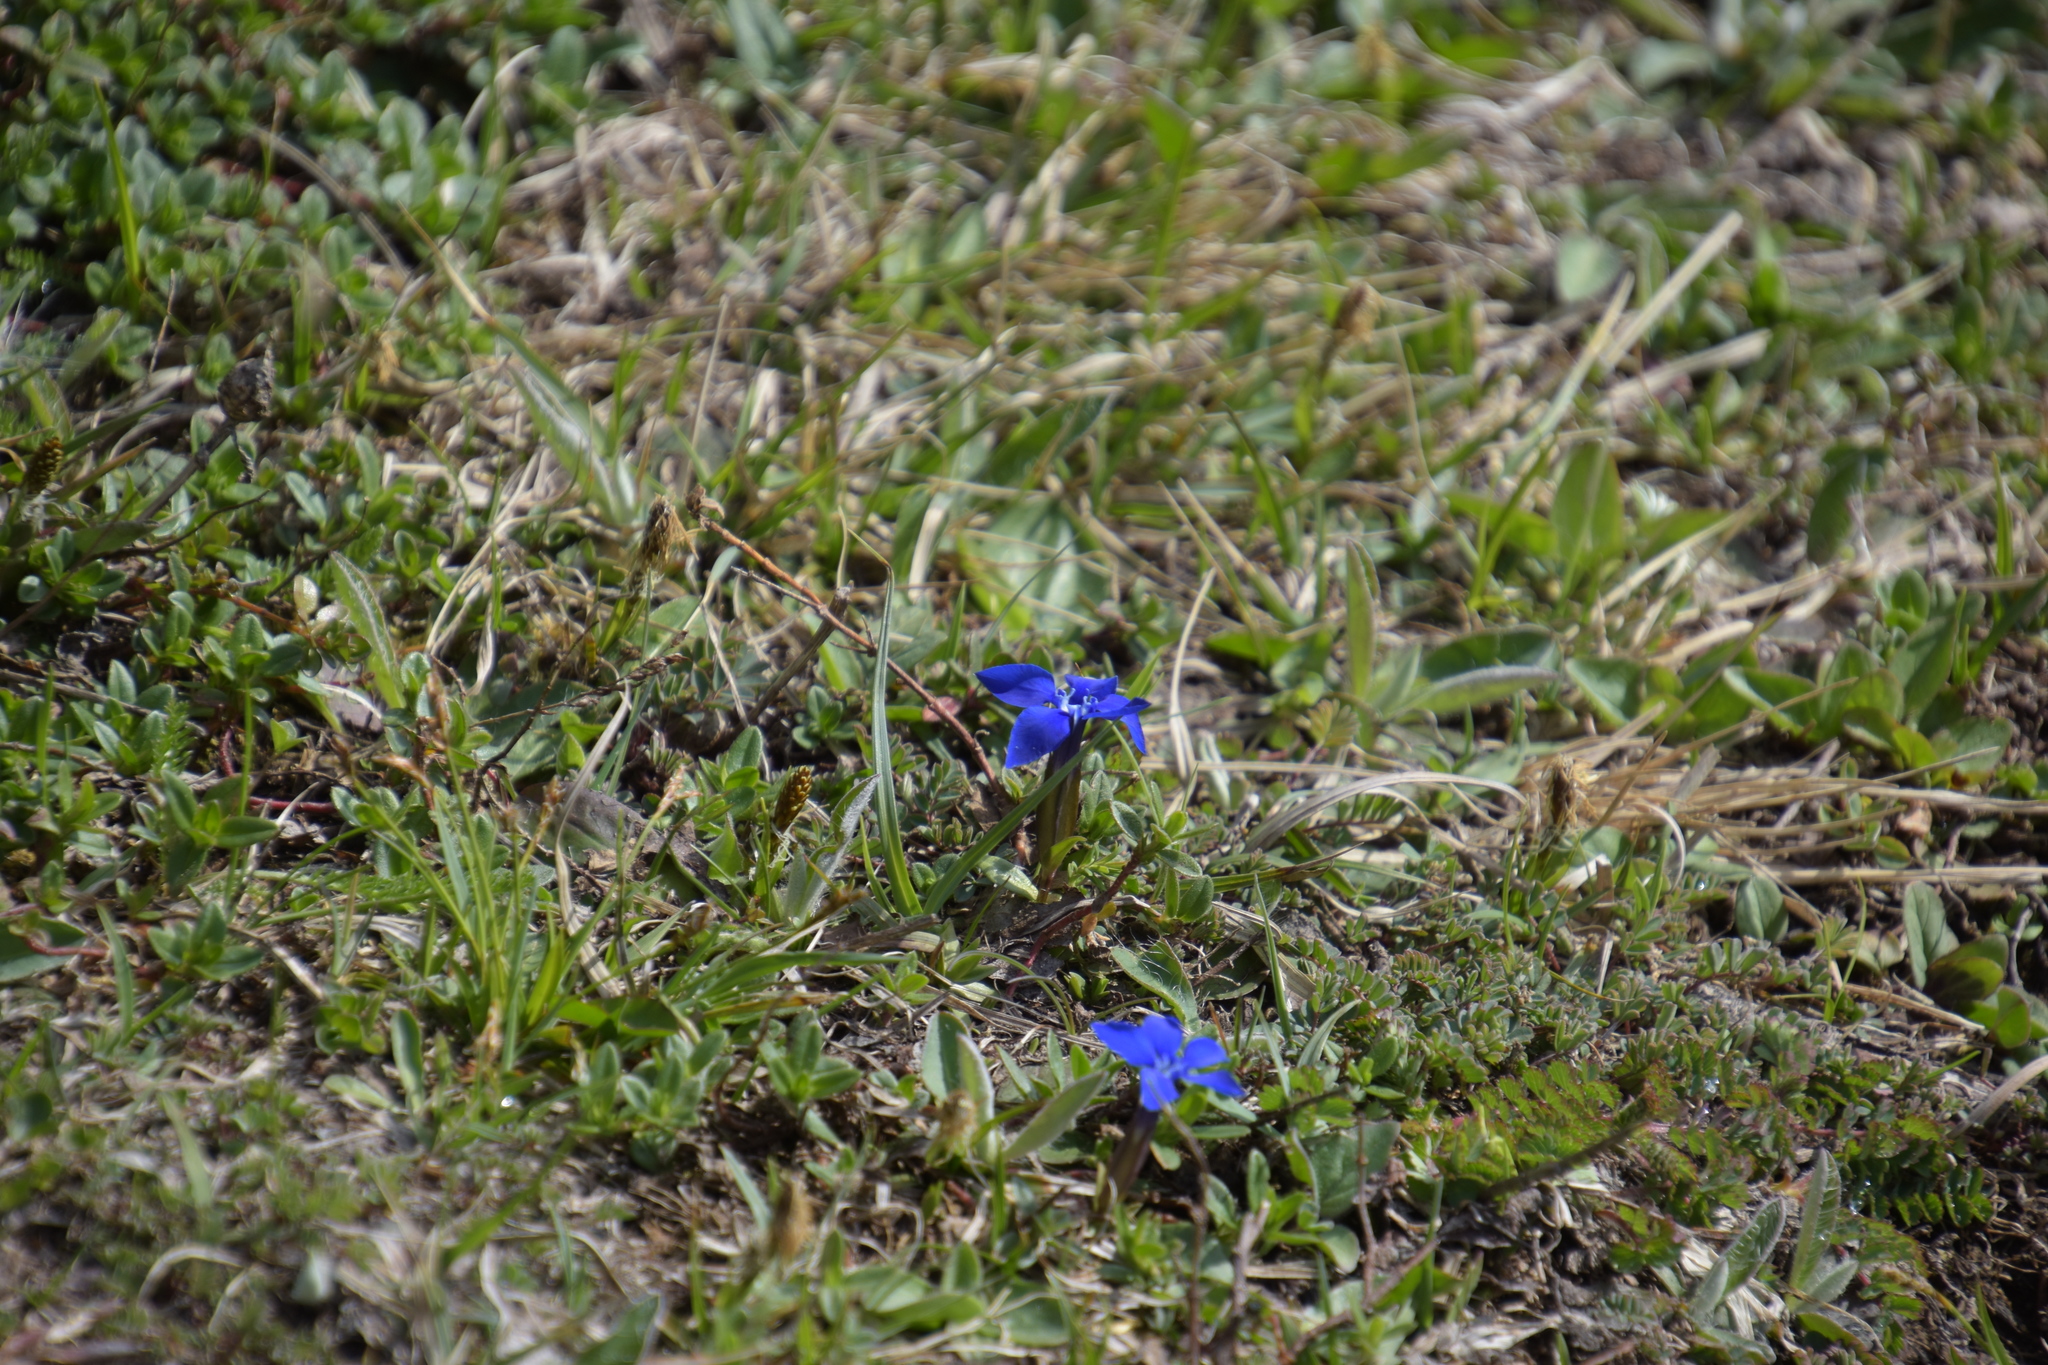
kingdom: Plantae
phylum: Tracheophyta
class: Magnoliopsida
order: Gentianales
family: Gentianaceae
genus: Gentiana
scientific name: Gentiana verna
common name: Spring gentian
